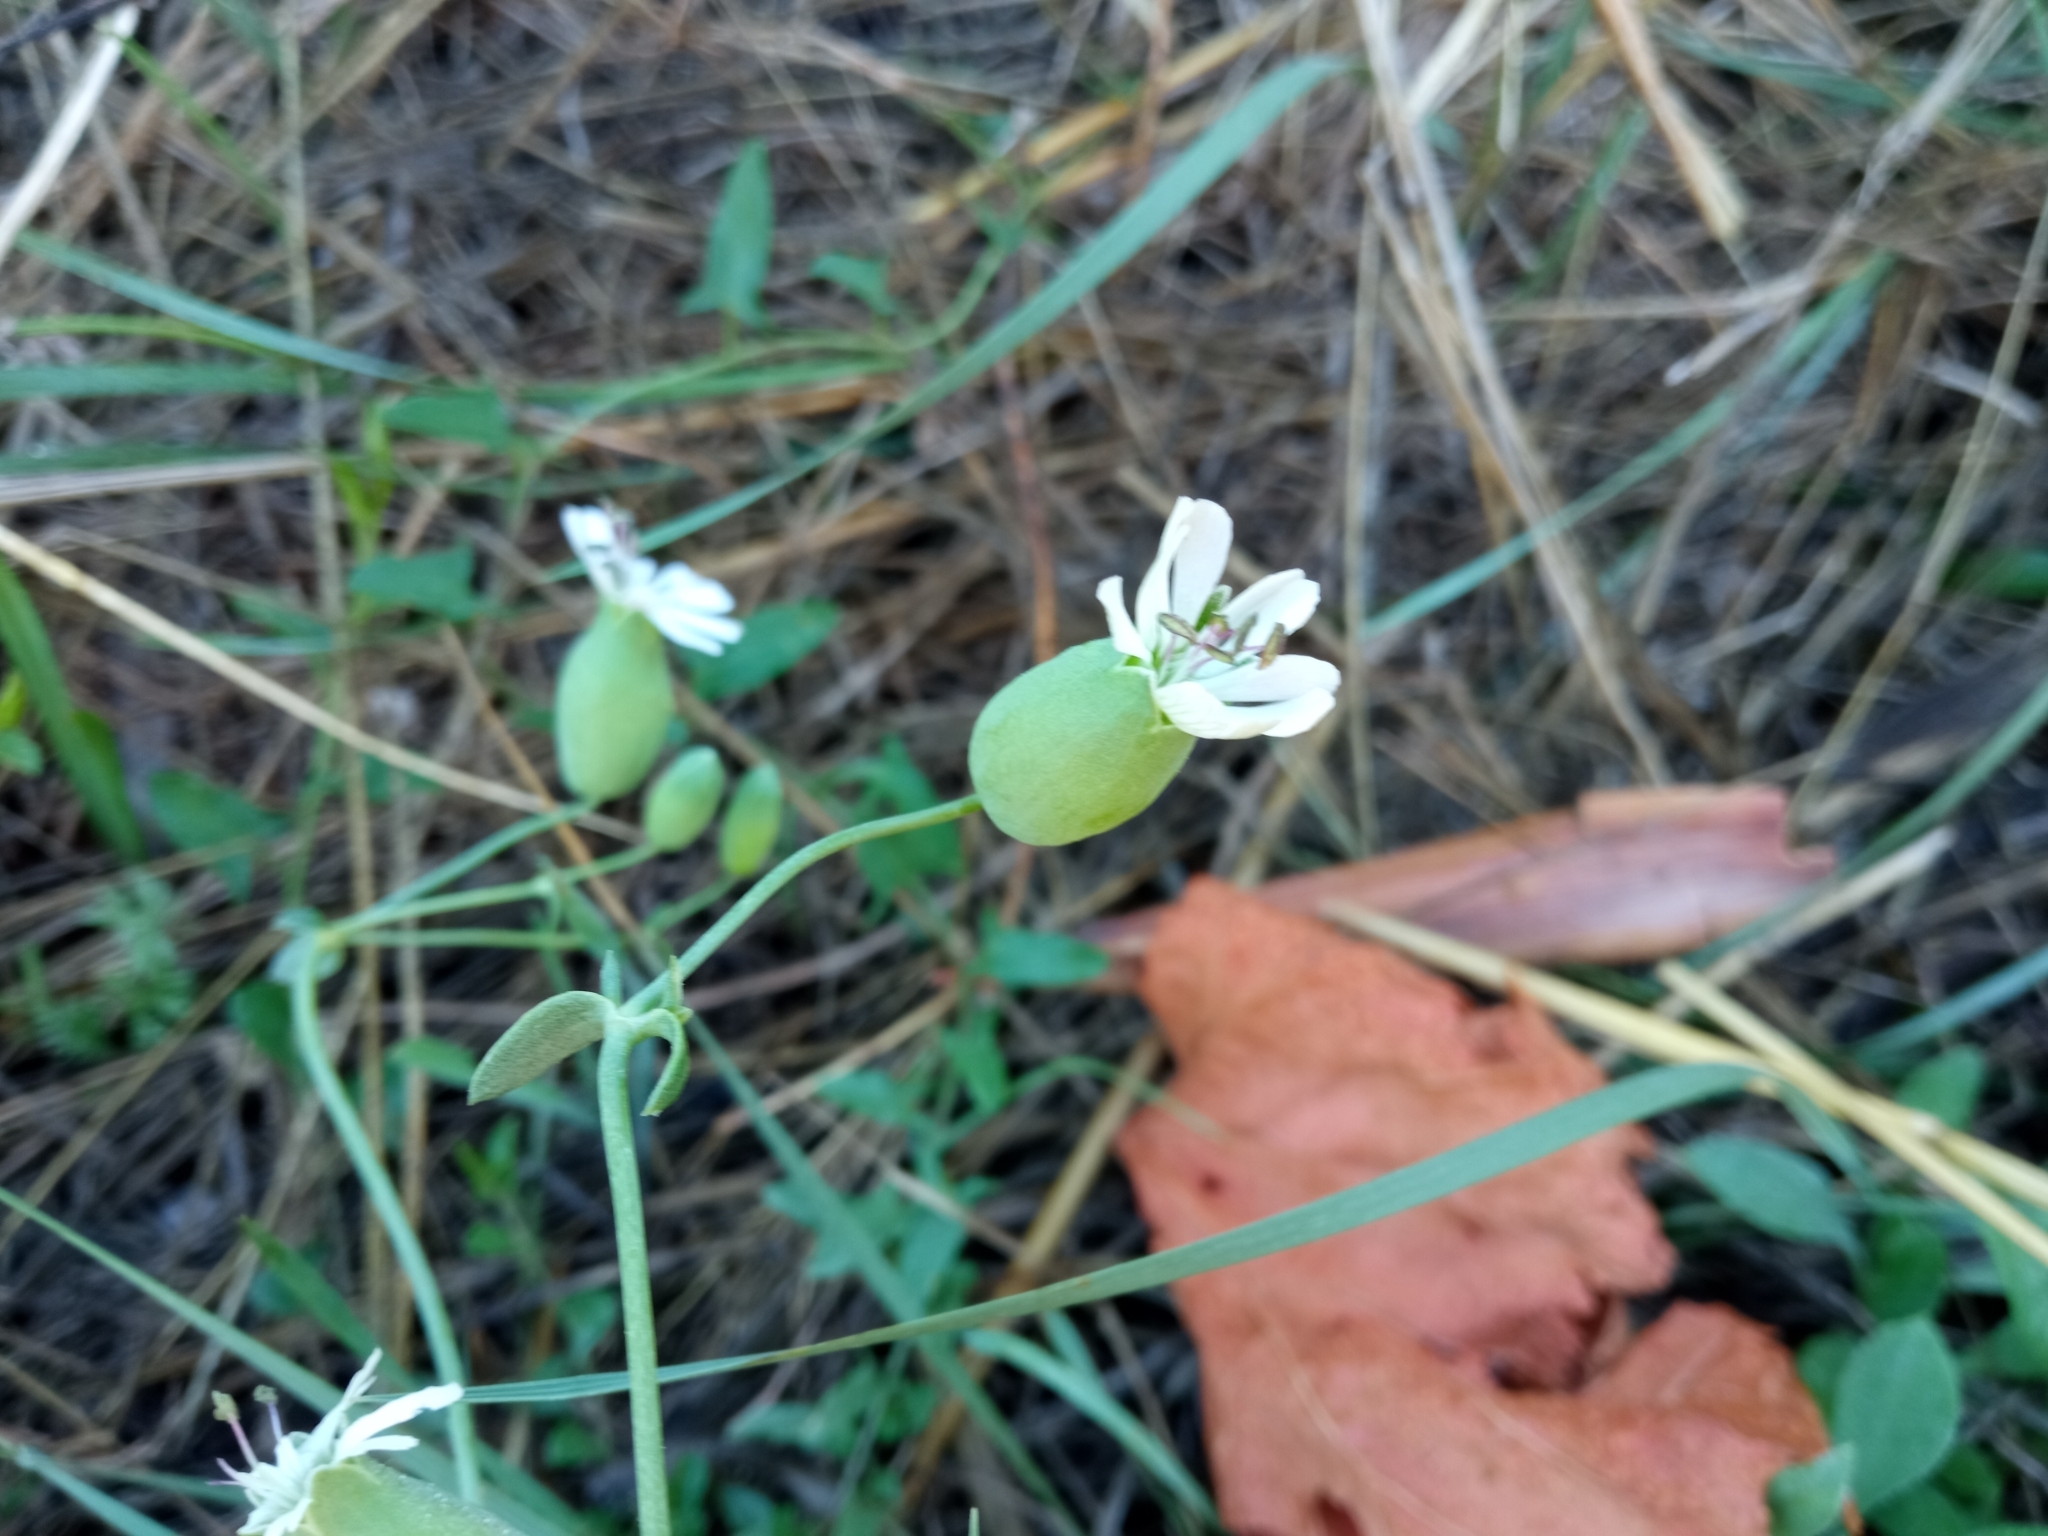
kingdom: Plantae
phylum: Tracheophyta
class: Magnoliopsida
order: Caryophyllales
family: Caryophyllaceae
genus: Silene
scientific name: Silene vulgaris
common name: Bladder campion
